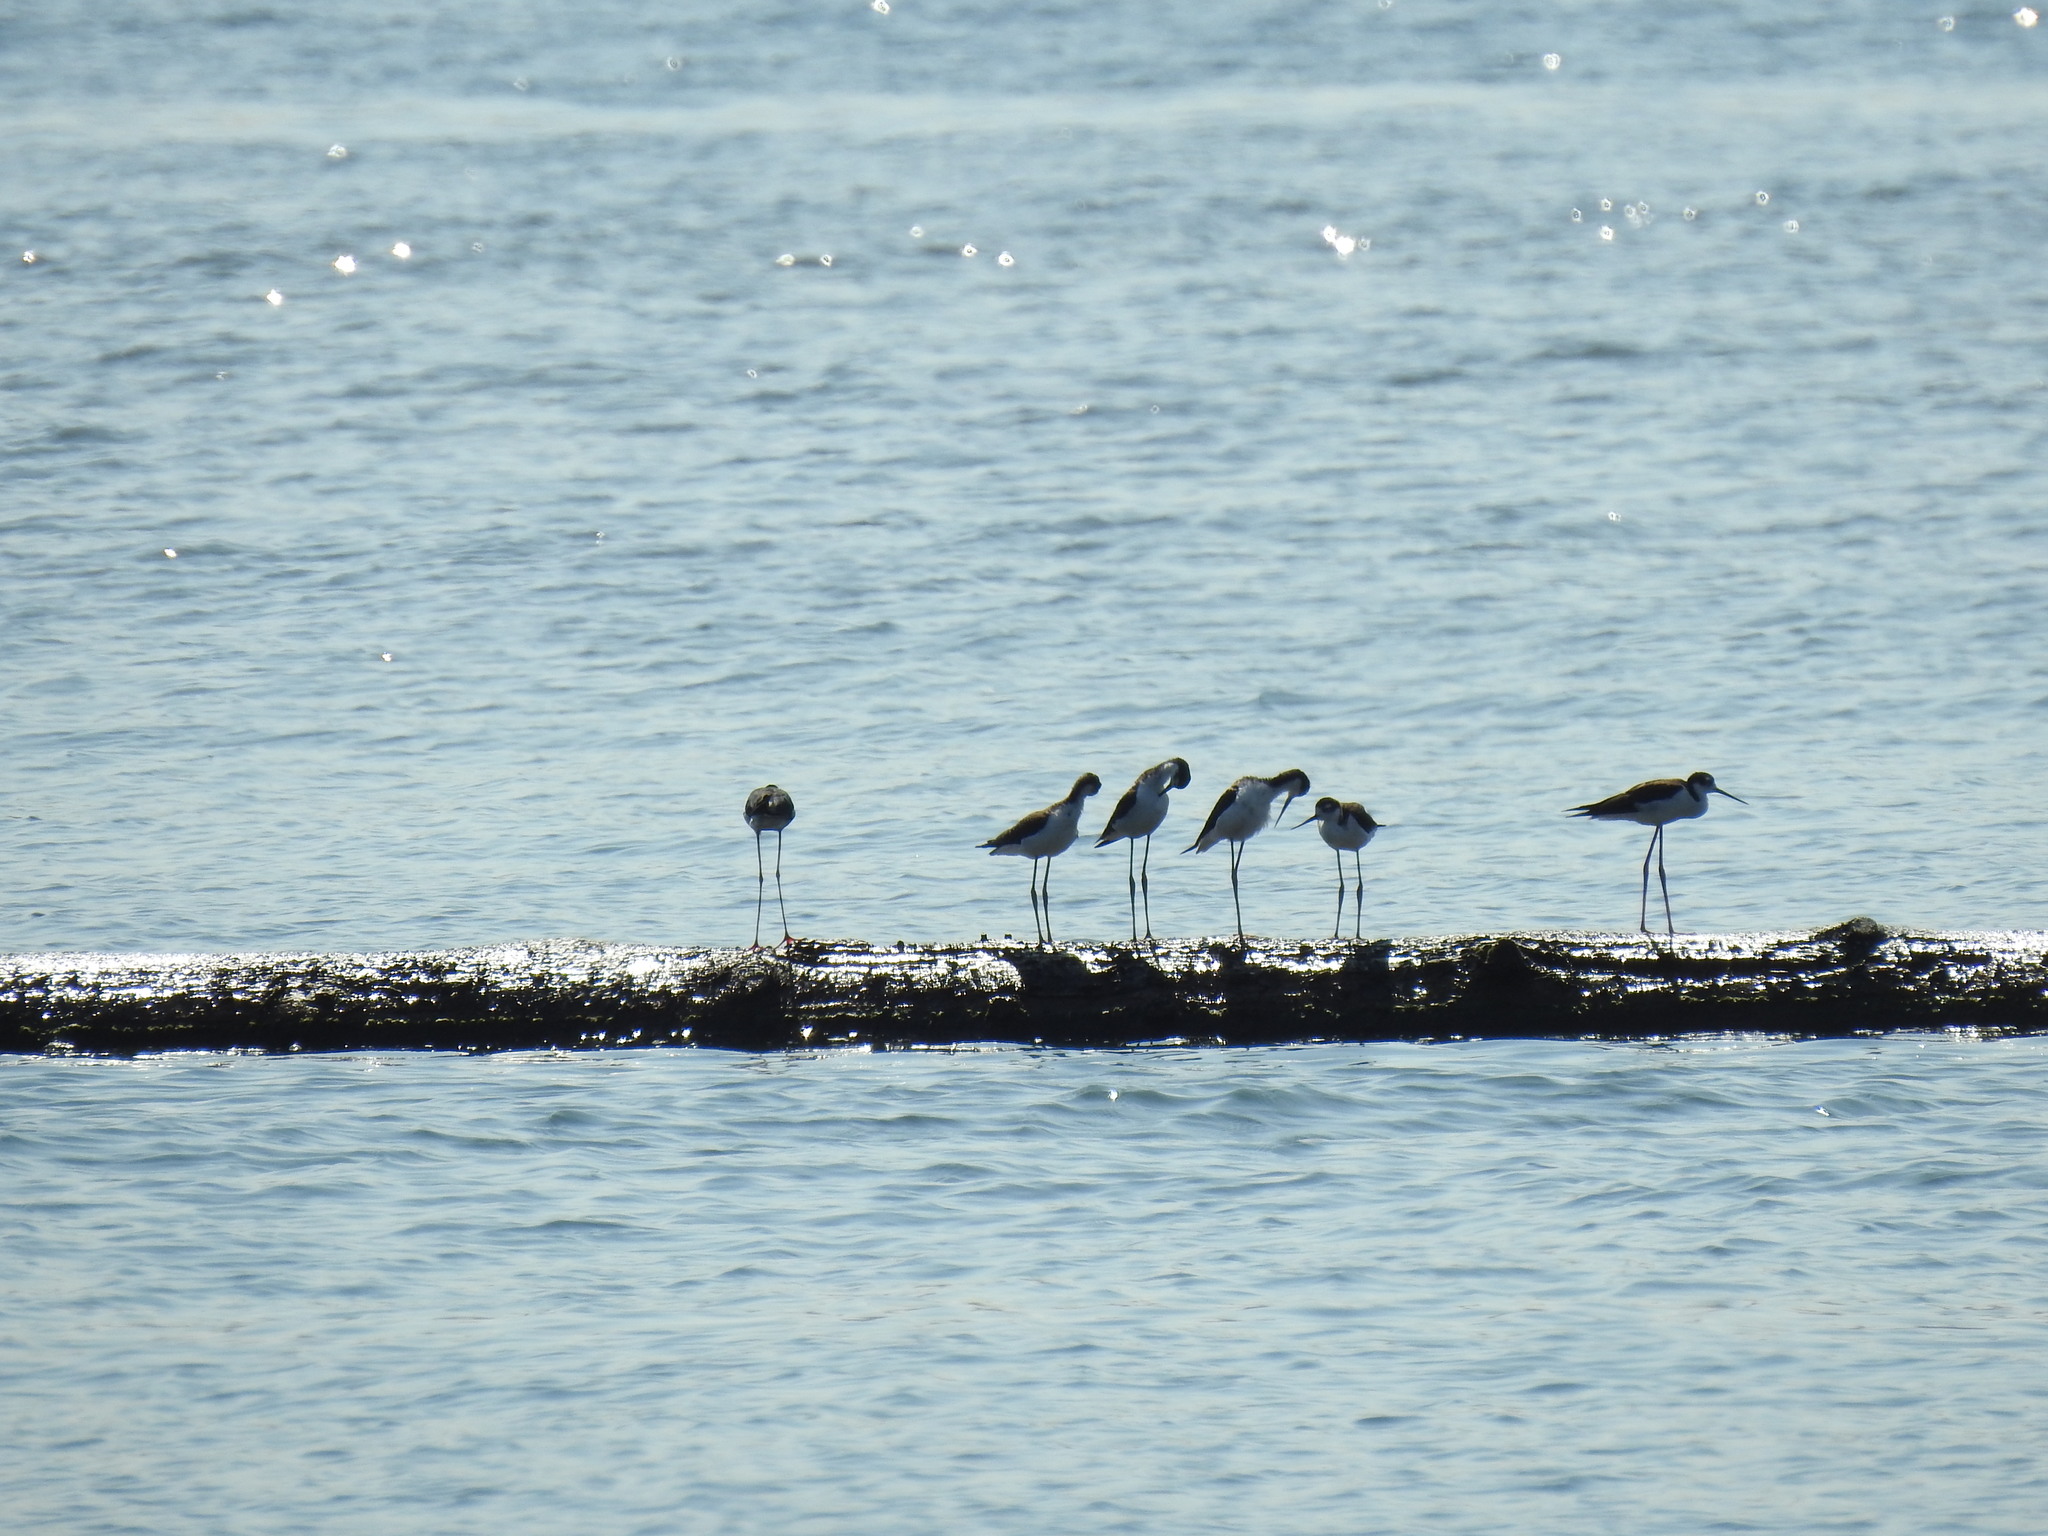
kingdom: Animalia
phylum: Chordata
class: Aves
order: Charadriiformes
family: Recurvirostridae
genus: Himantopus
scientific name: Himantopus mexicanus
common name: Black-necked stilt
